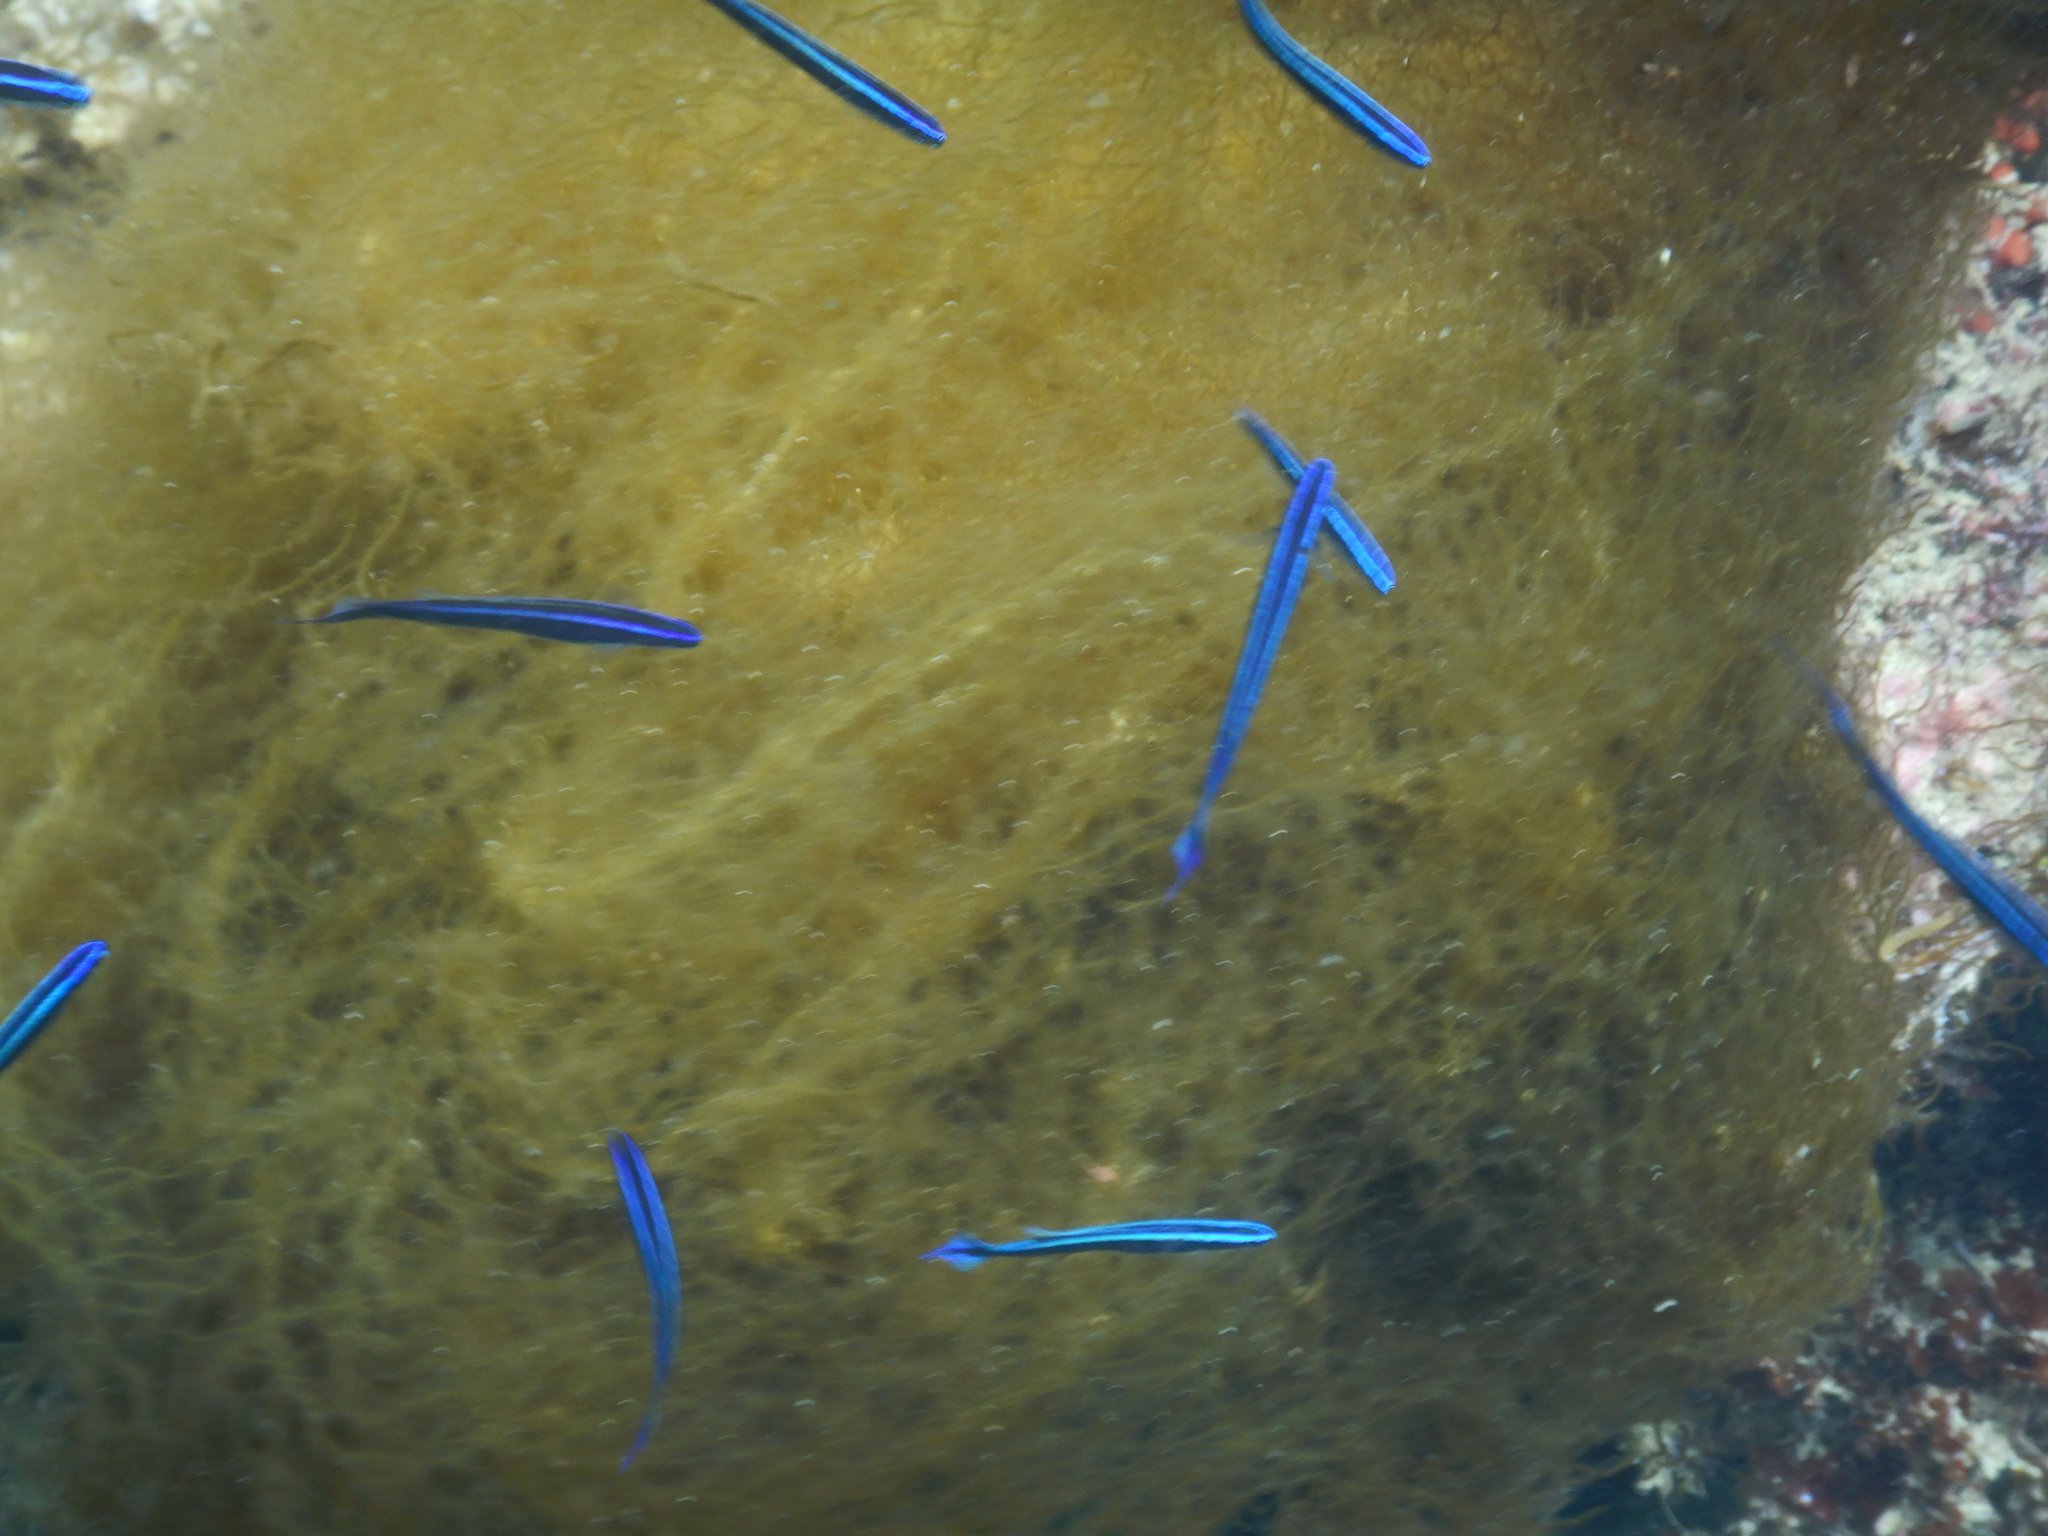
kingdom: Animalia
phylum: Chordata
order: Perciformes
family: Plesiopidae
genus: Trachinops
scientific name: Trachinops brauni
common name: Blue-lined prettyfin
